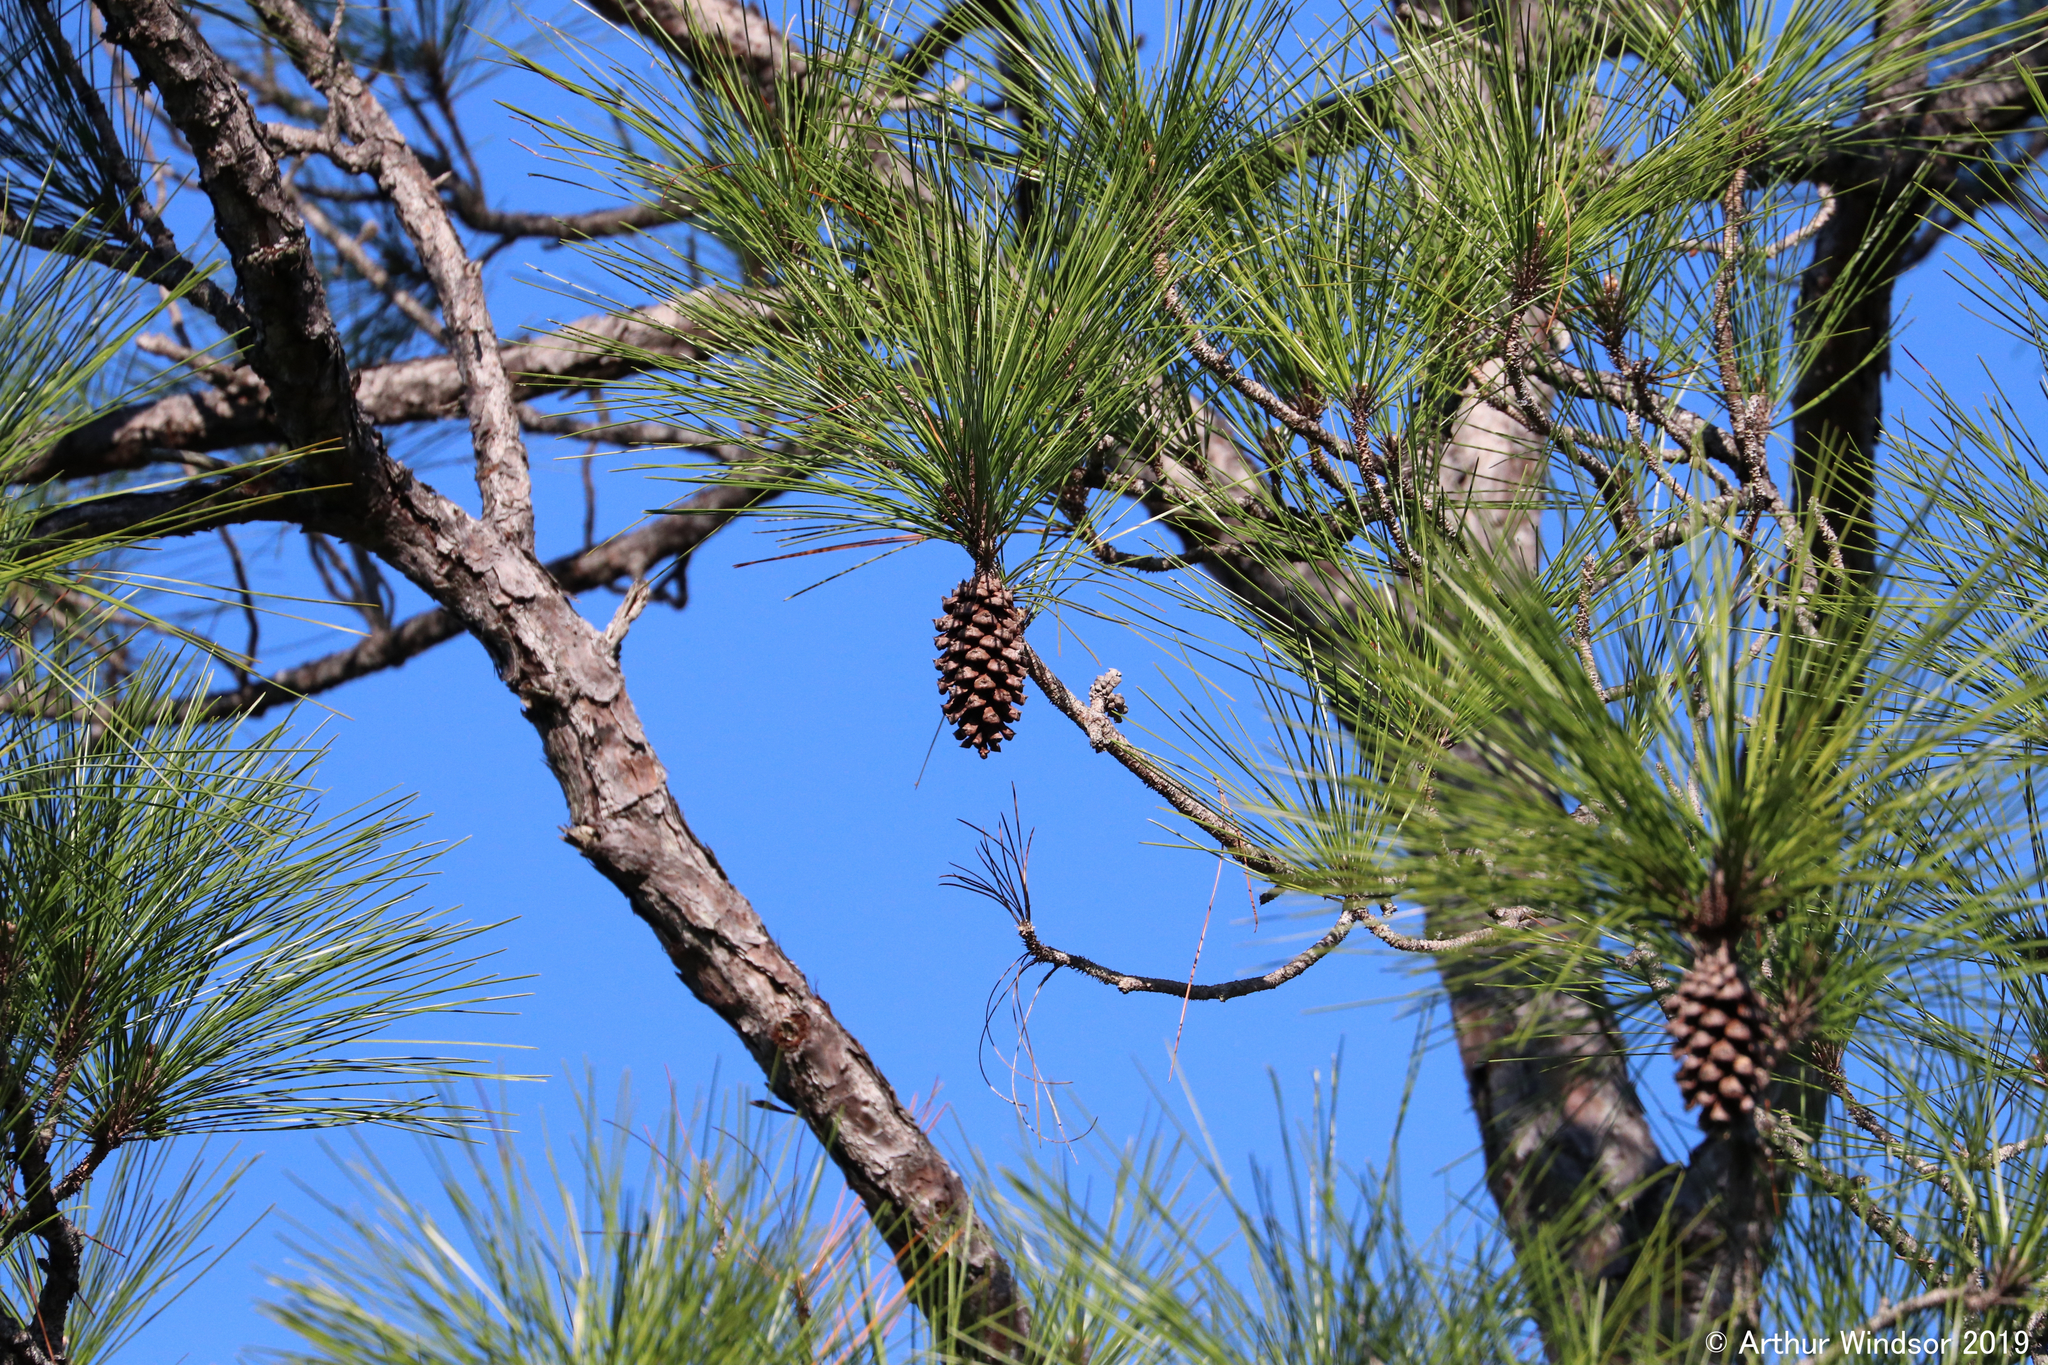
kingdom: Plantae
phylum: Tracheophyta
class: Pinopsida
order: Pinales
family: Pinaceae
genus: Pinus
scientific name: Pinus elliottii
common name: Slash pine
